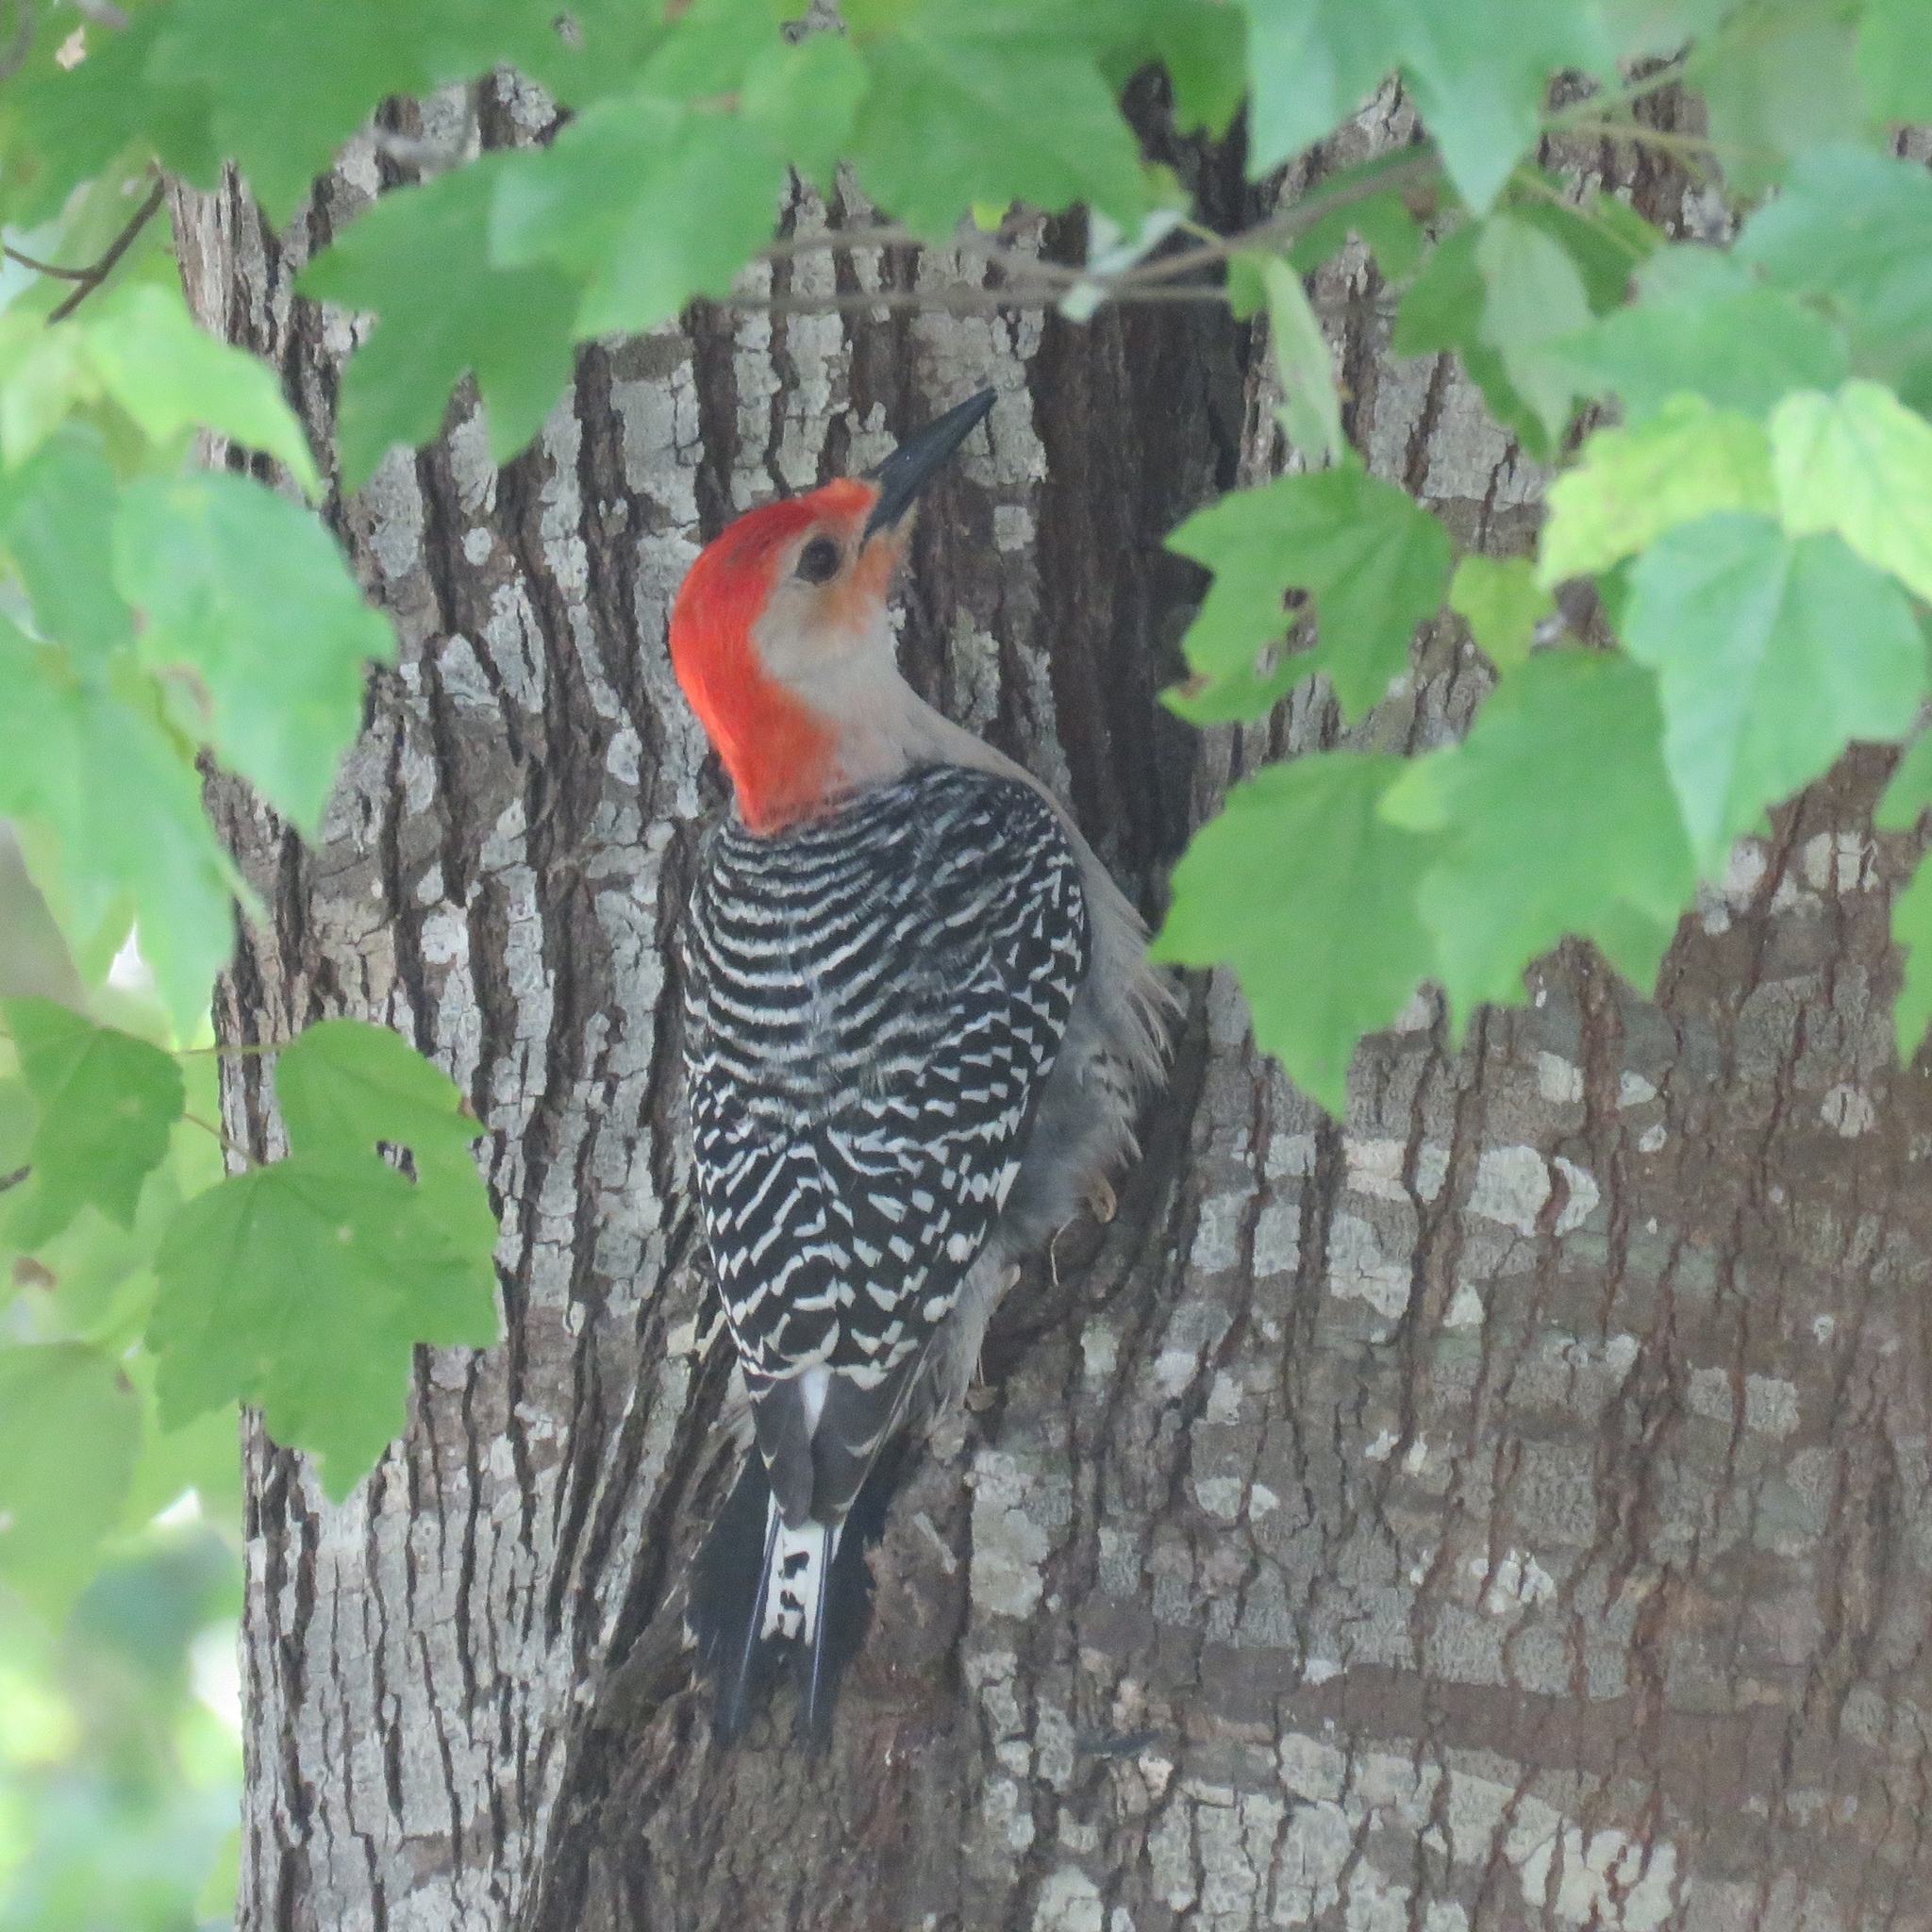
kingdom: Animalia
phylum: Chordata
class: Aves
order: Piciformes
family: Picidae
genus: Melanerpes
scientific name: Melanerpes carolinus
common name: Red-bellied woodpecker
